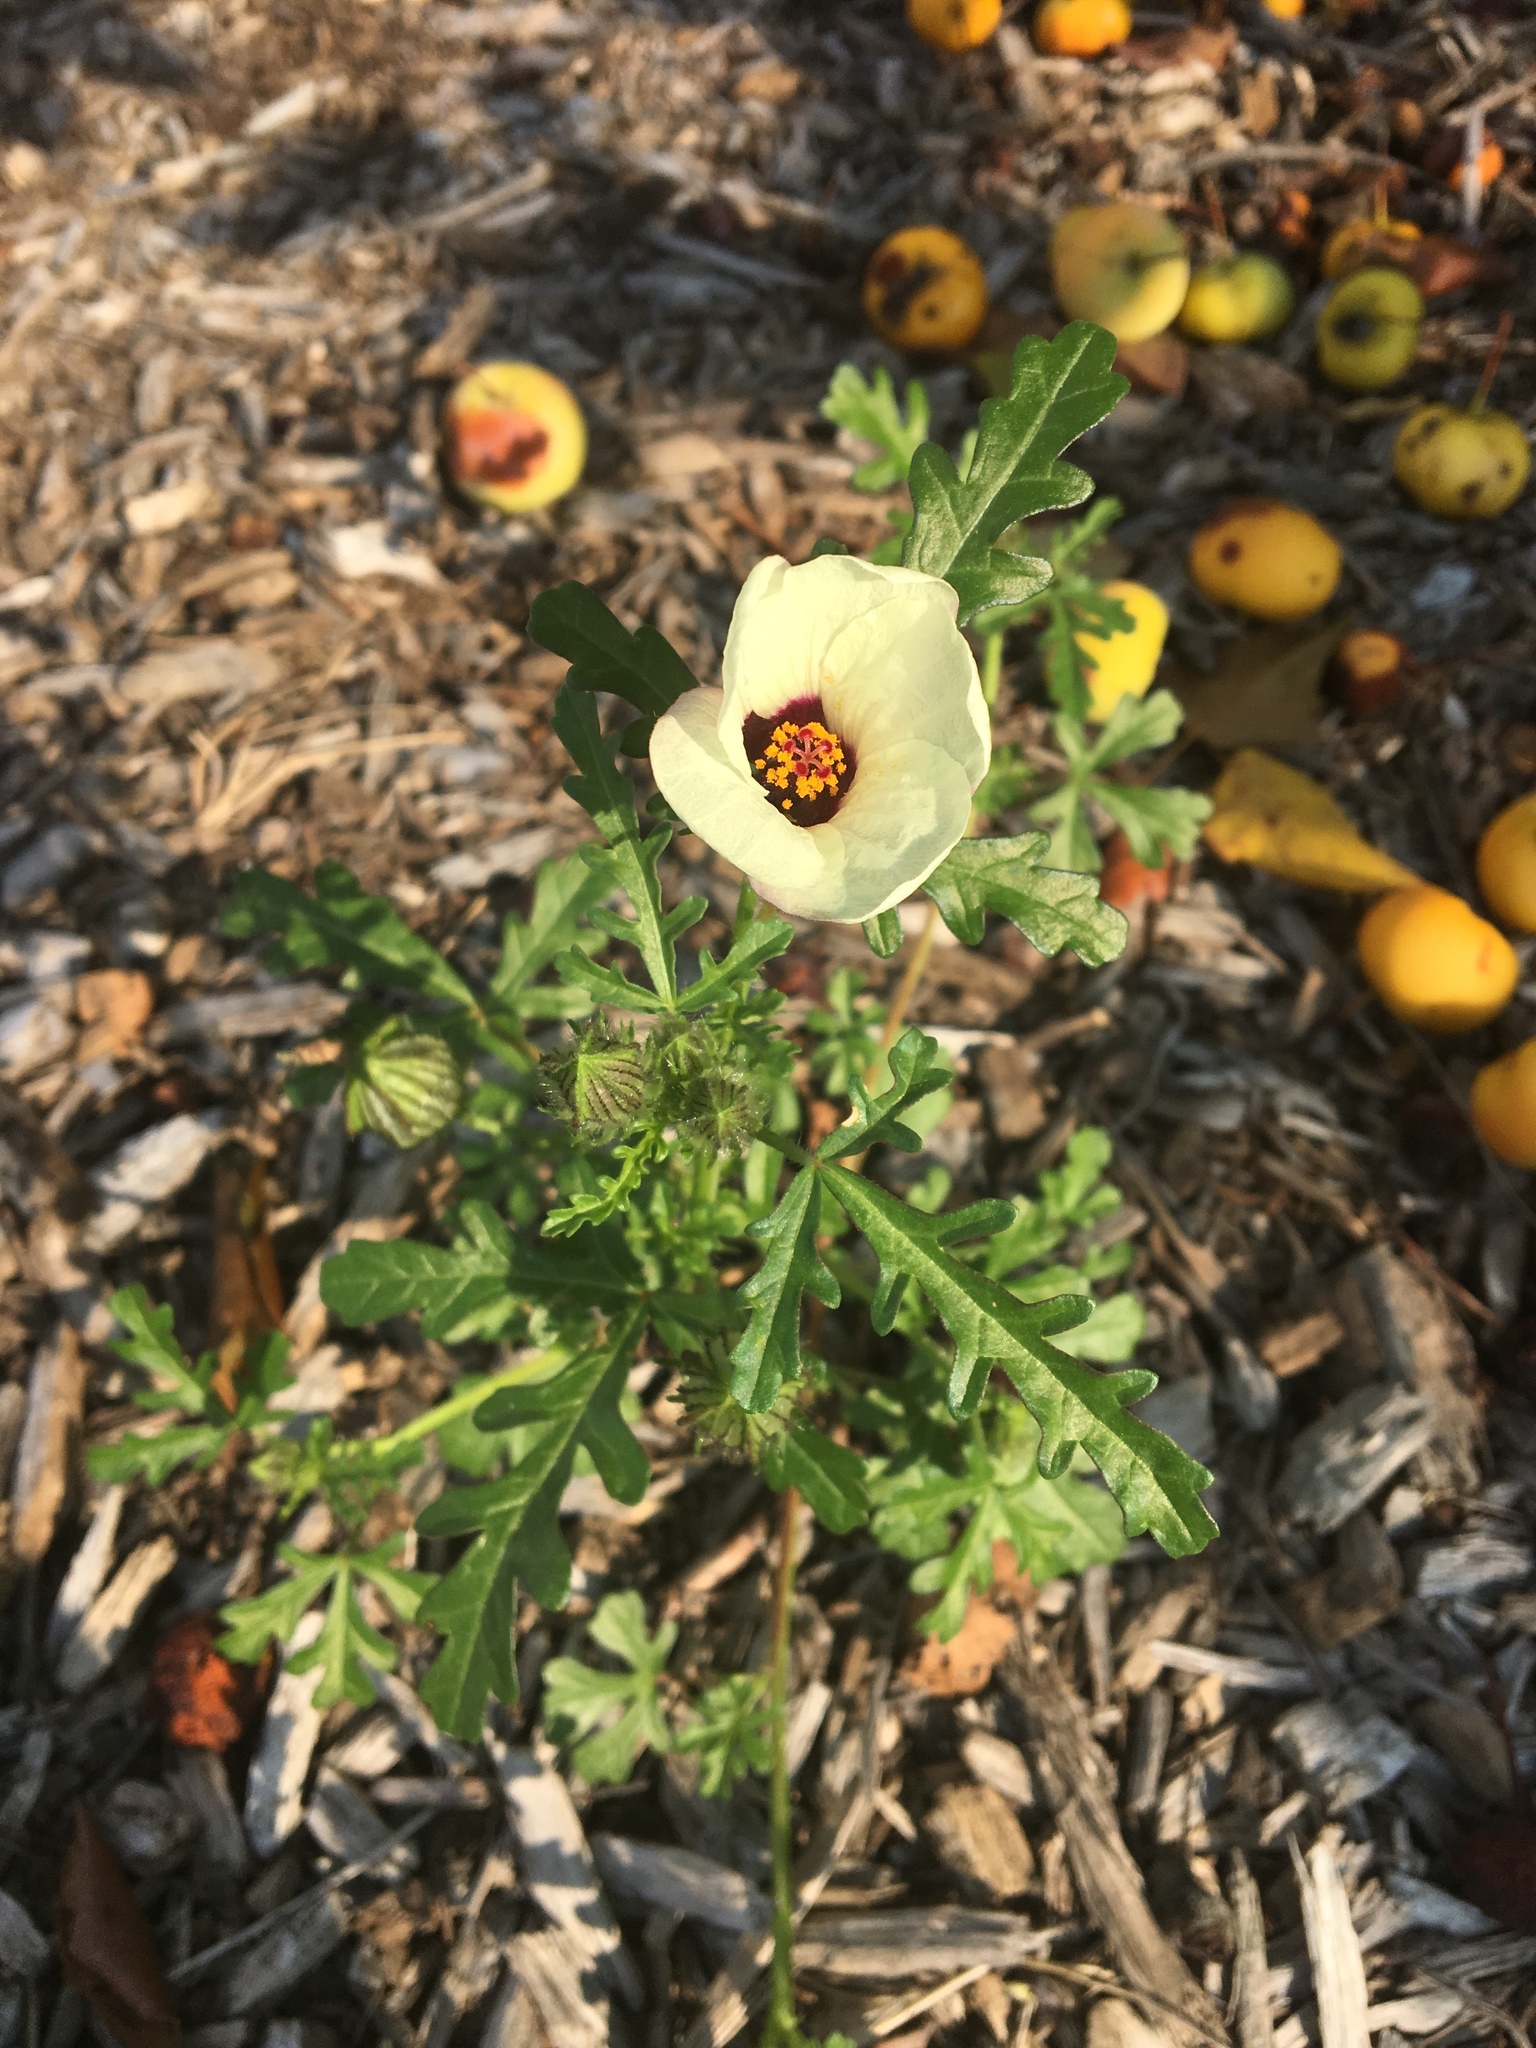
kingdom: Plantae
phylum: Tracheophyta
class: Magnoliopsida
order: Malvales
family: Malvaceae
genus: Hibiscus
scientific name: Hibiscus trionum
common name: Bladder ketmia
